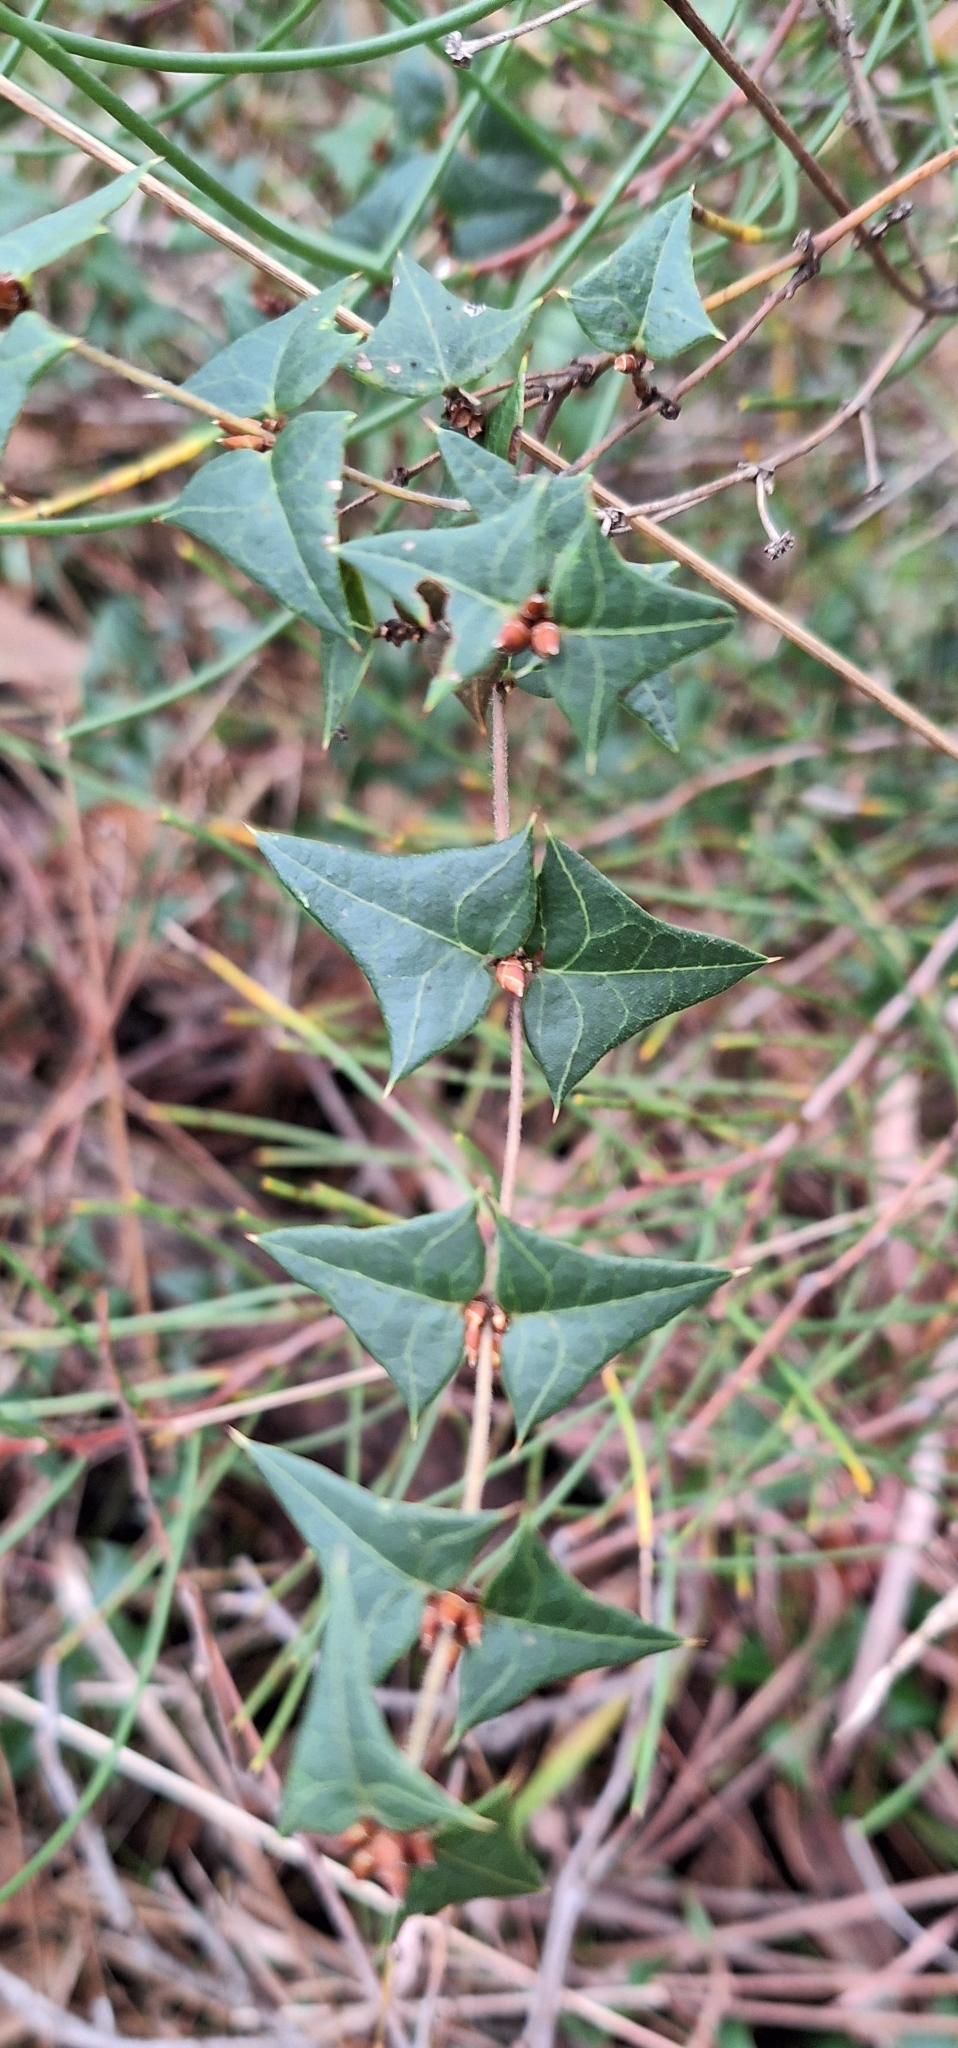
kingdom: Plantae
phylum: Tracheophyta
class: Magnoliopsida
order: Fabales
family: Fabaceae
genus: Platylobium
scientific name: Platylobium obtusangulum
